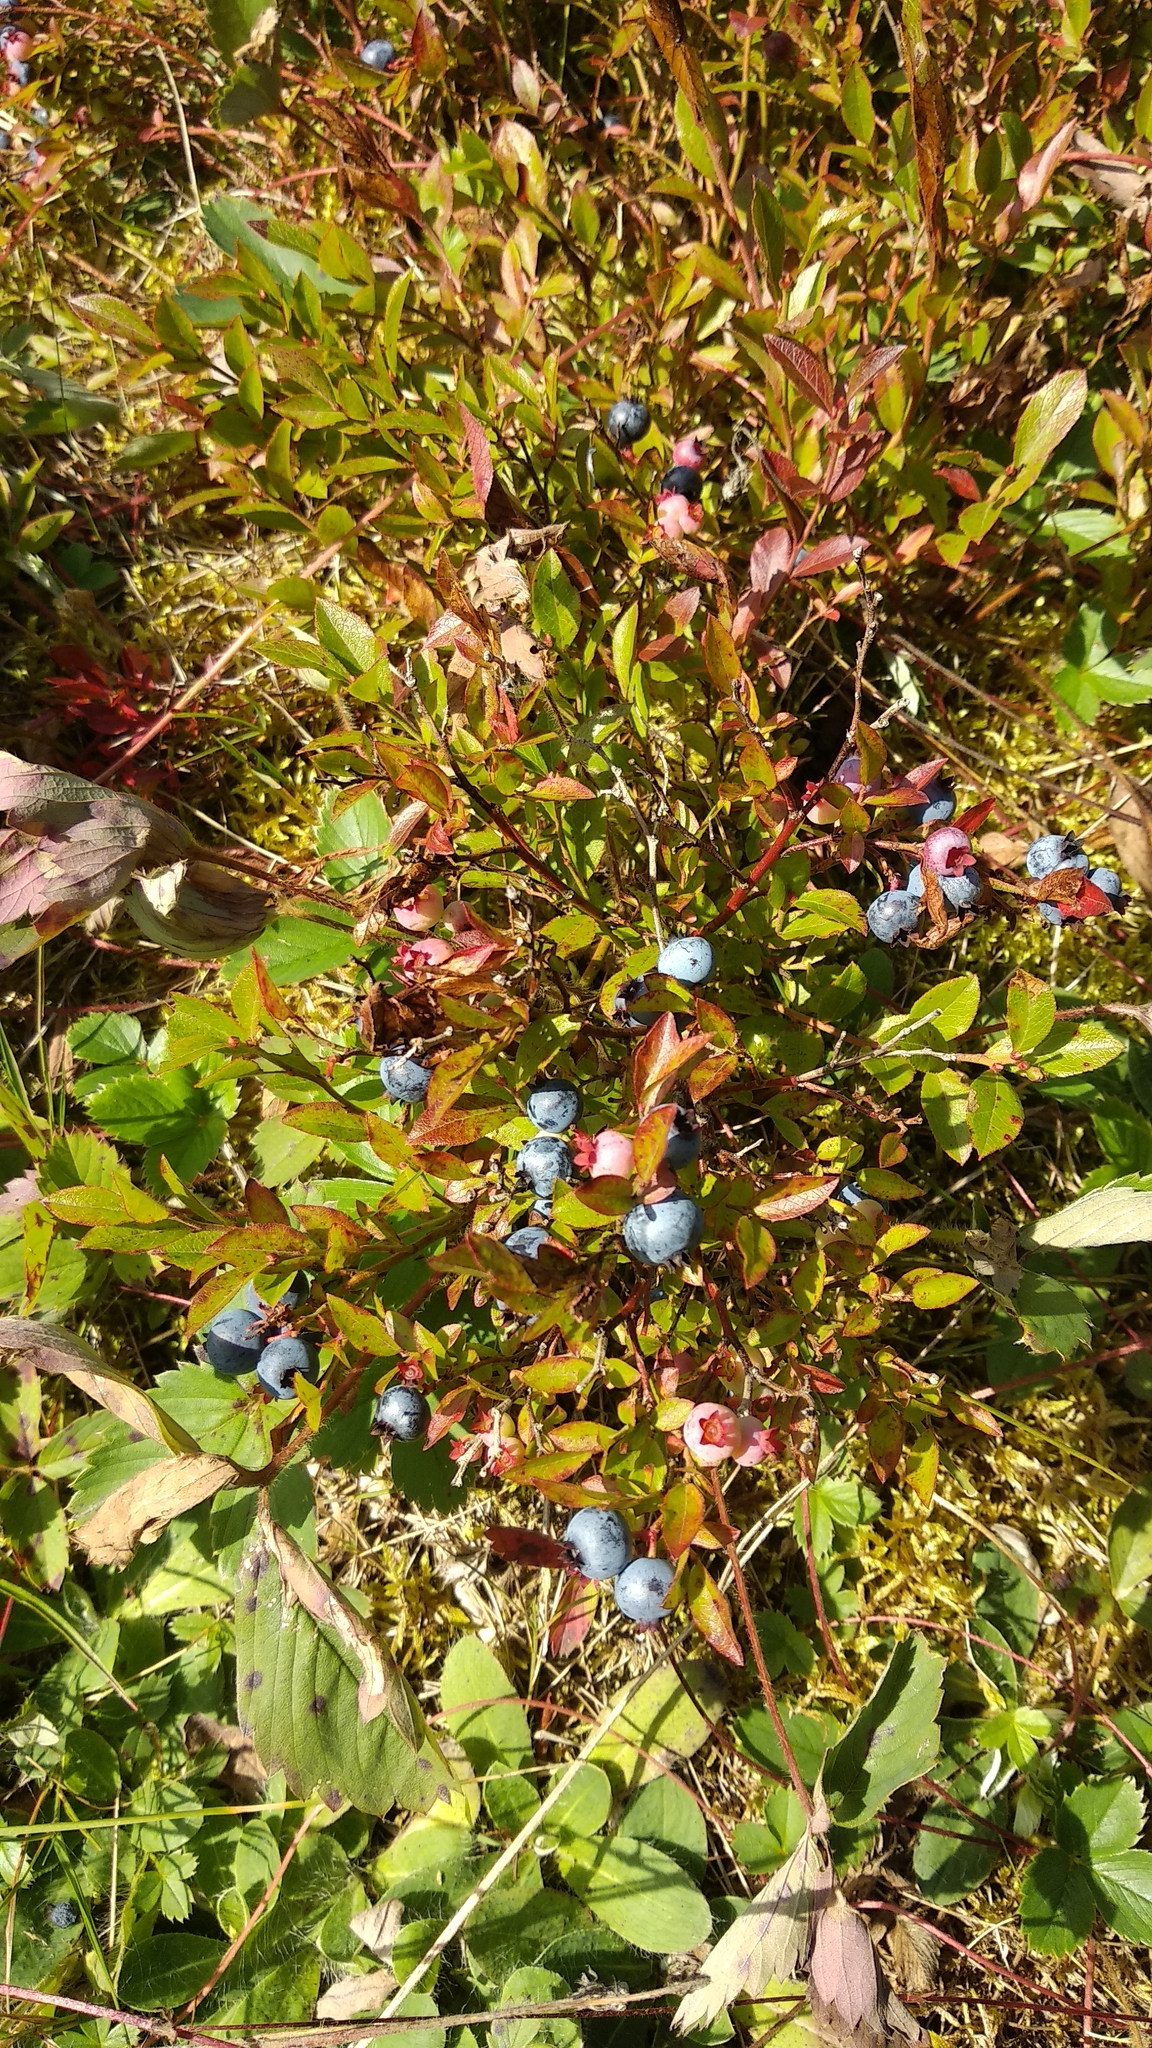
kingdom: Plantae
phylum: Tracheophyta
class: Magnoliopsida
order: Ericales
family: Ericaceae
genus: Vaccinium
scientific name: Vaccinium angustifolium
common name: Early lowbush blueberry
